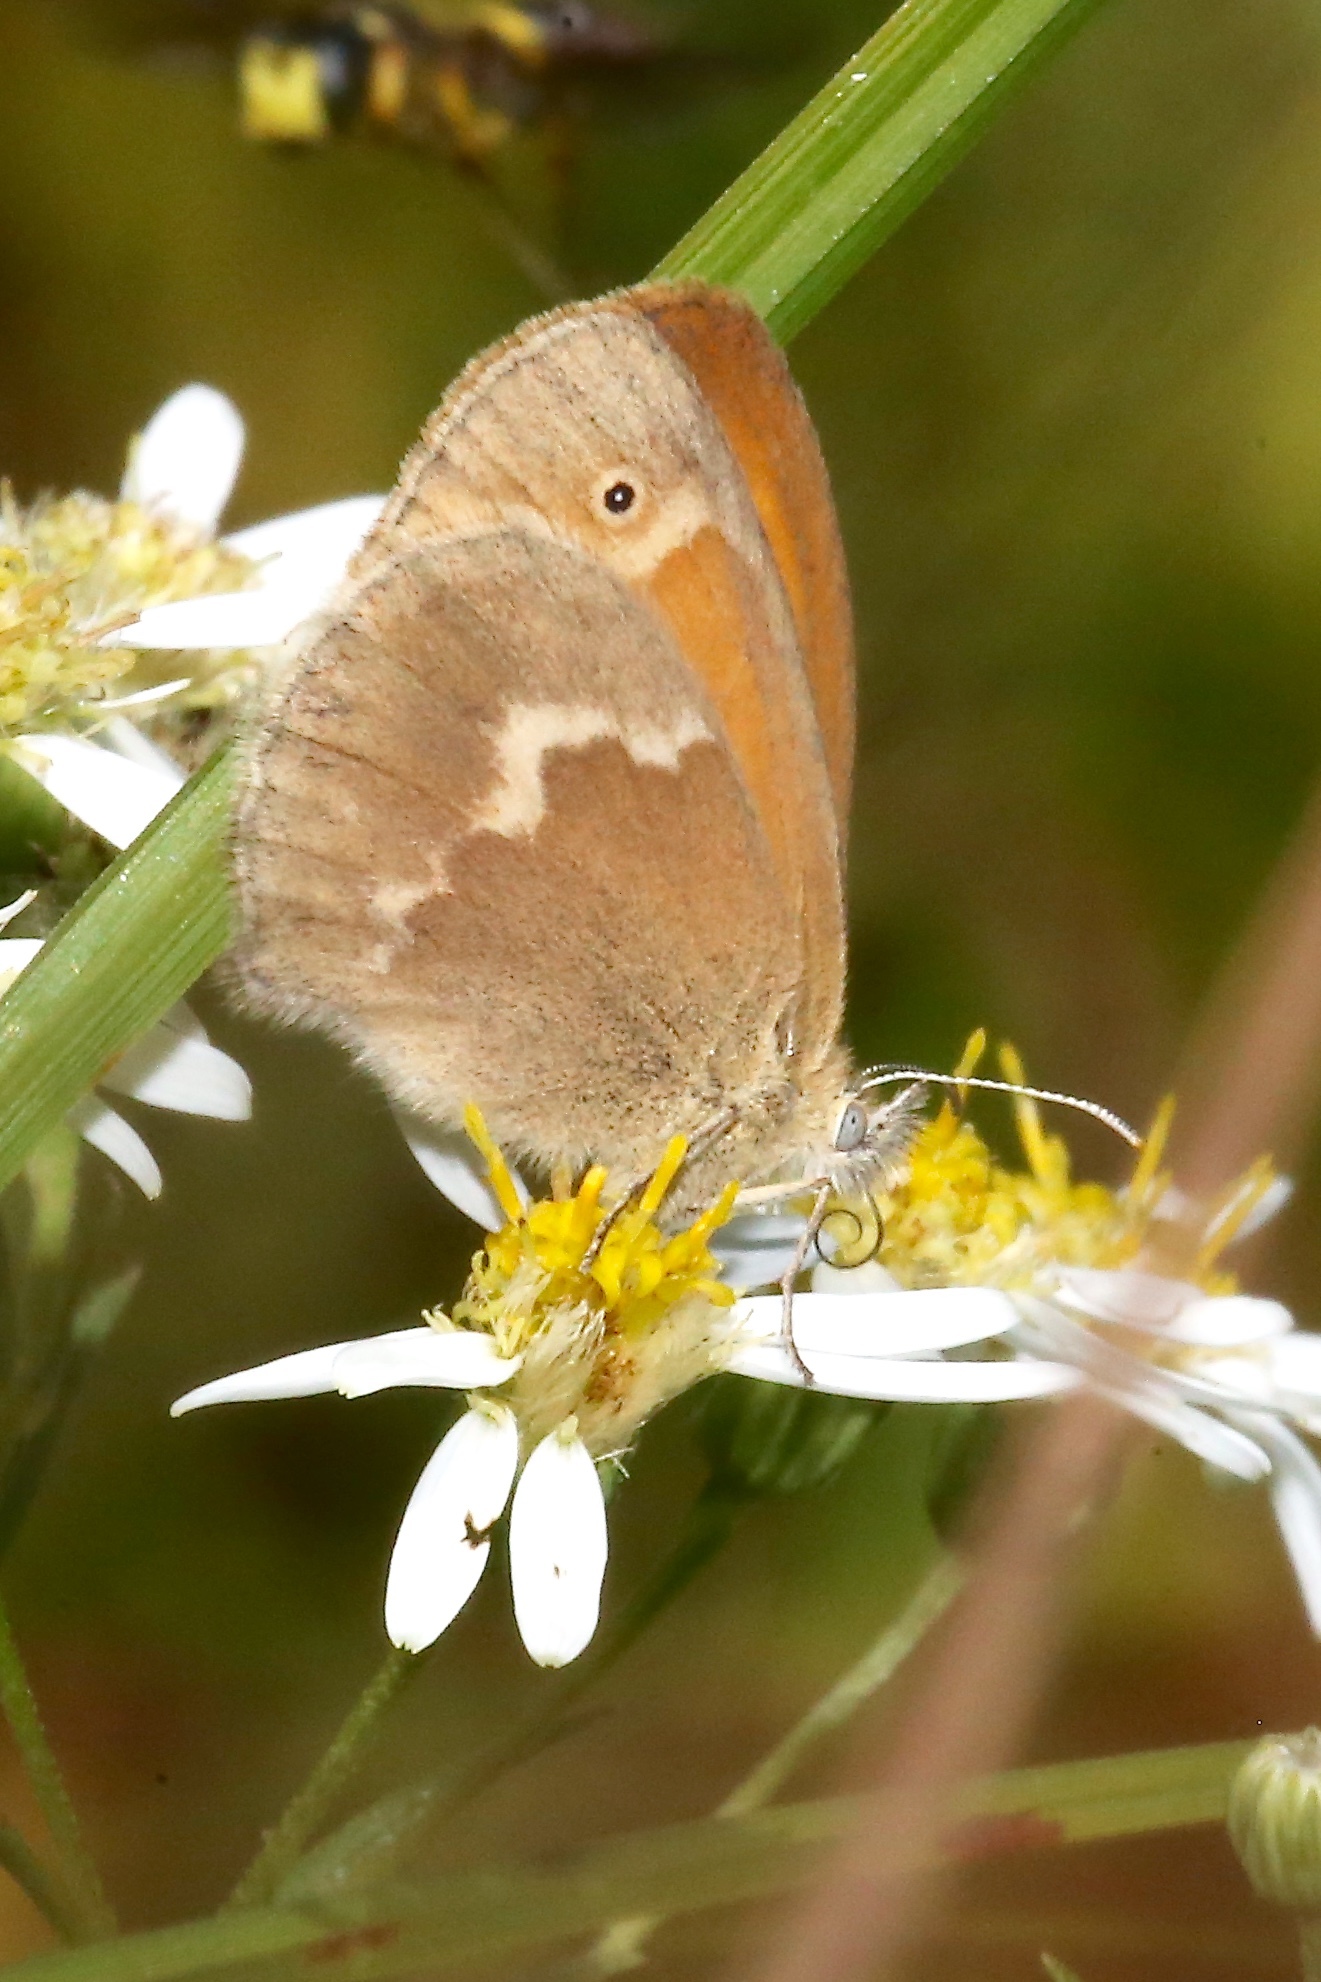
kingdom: Animalia
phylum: Arthropoda
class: Insecta
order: Lepidoptera
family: Nymphalidae
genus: Coenonympha
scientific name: Coenonympha california
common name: Common ringlet
